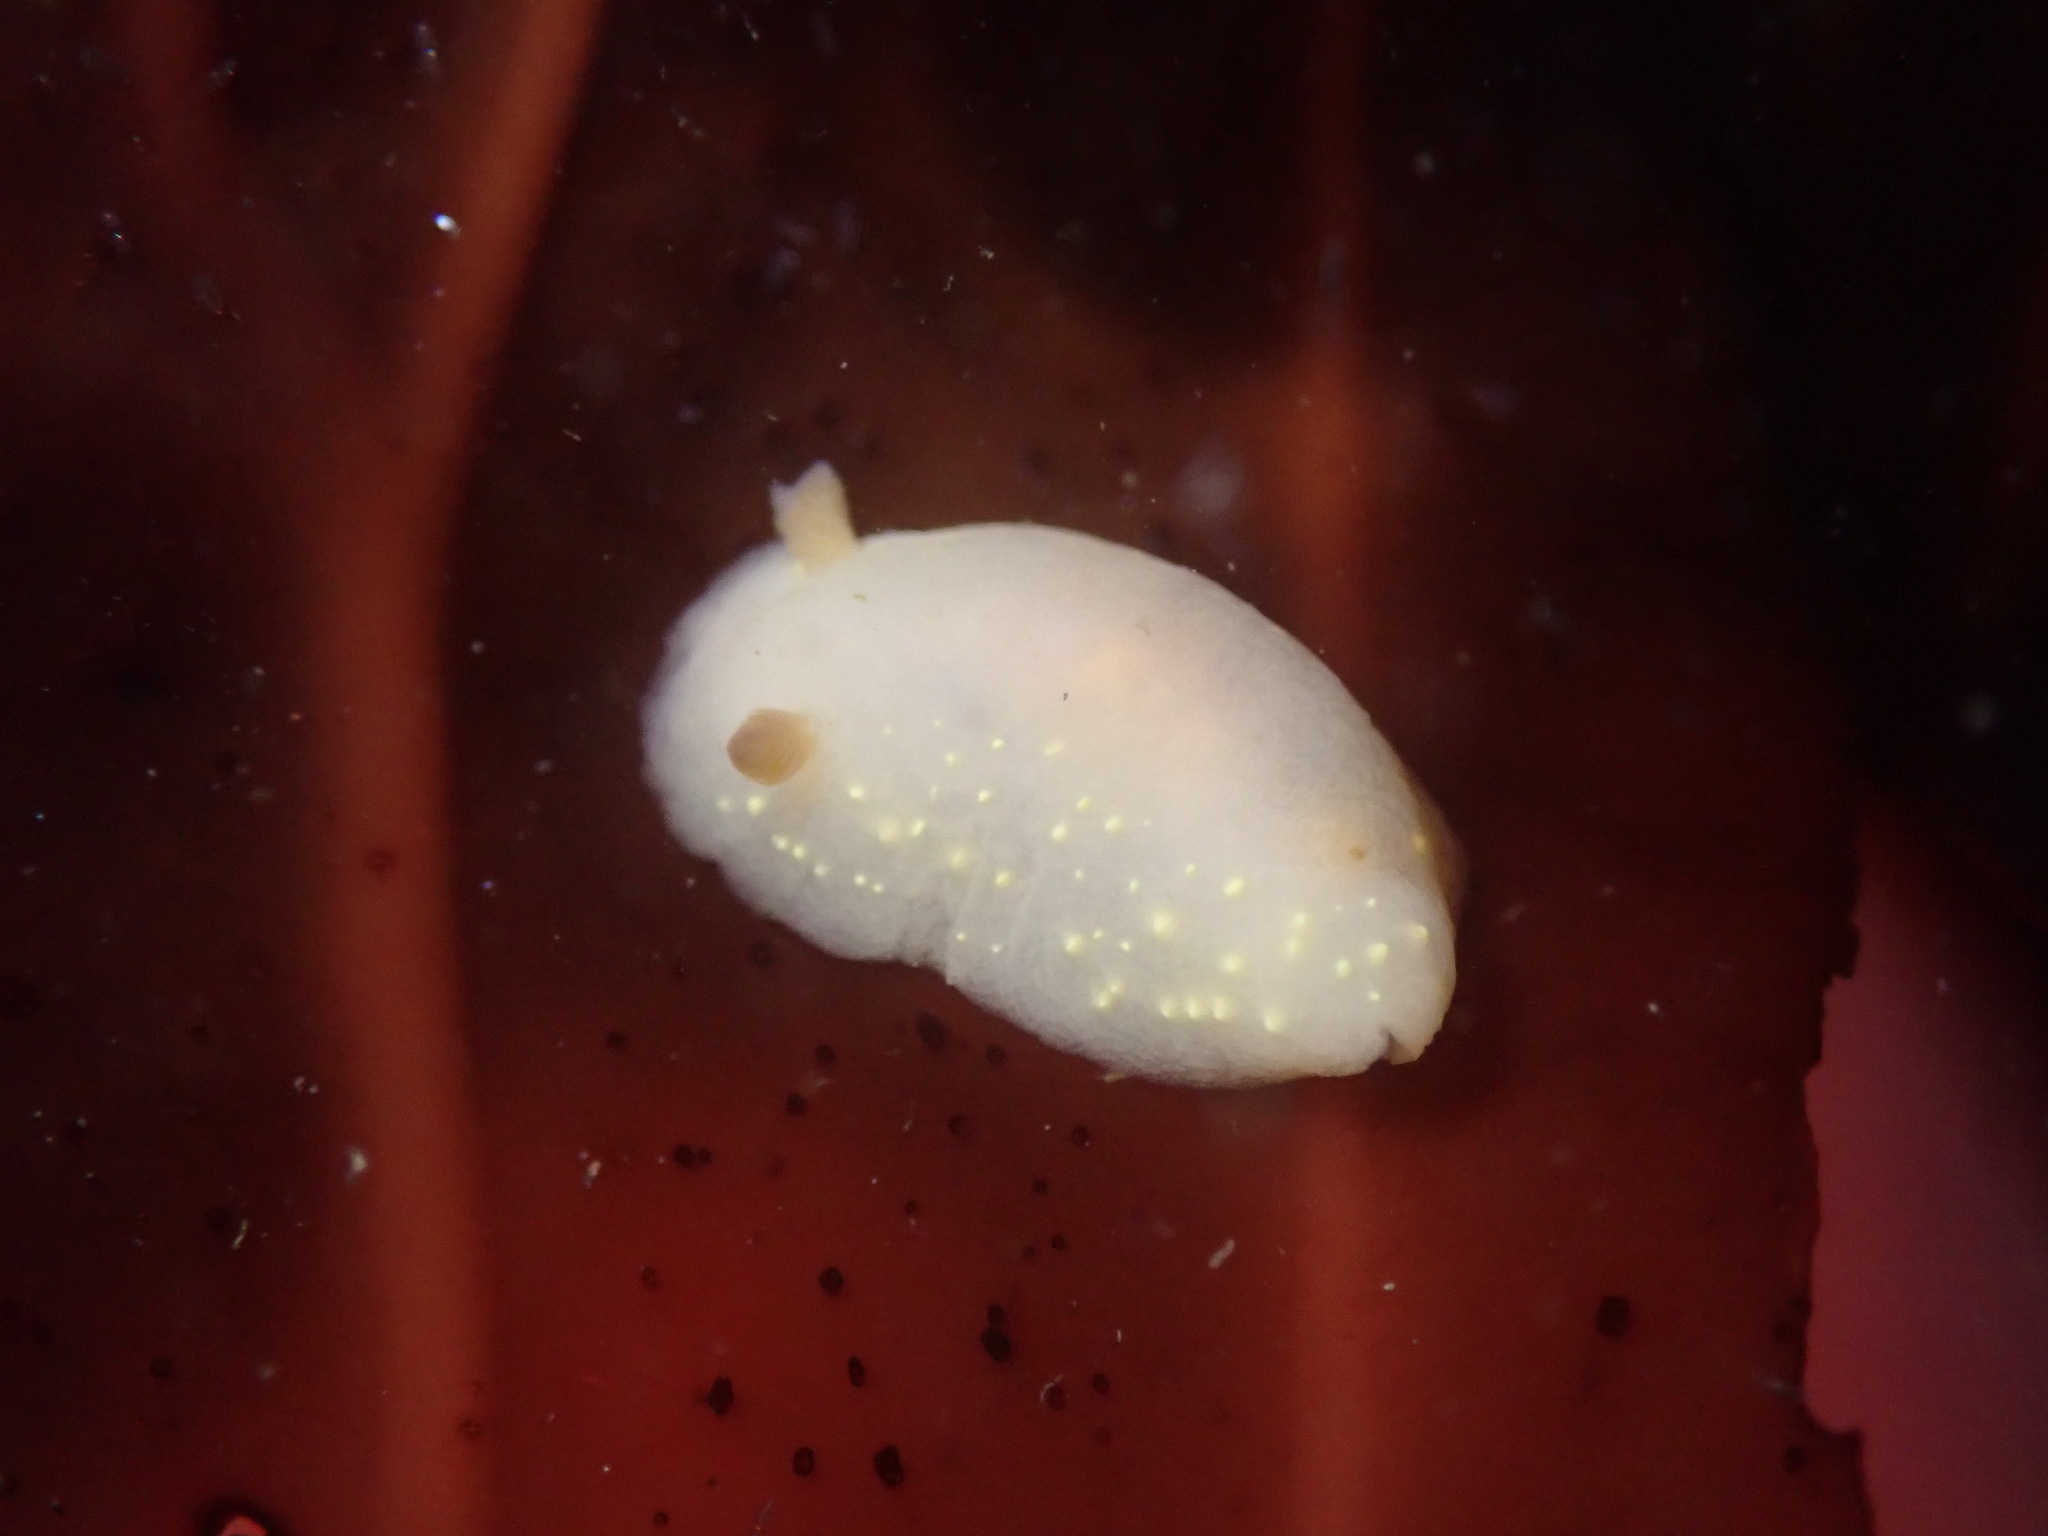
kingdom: Animalia
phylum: Mollusca
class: Gastropoda
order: Nudibranchia
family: Cadlinidae
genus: Cadlina
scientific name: Cadlina modesta
